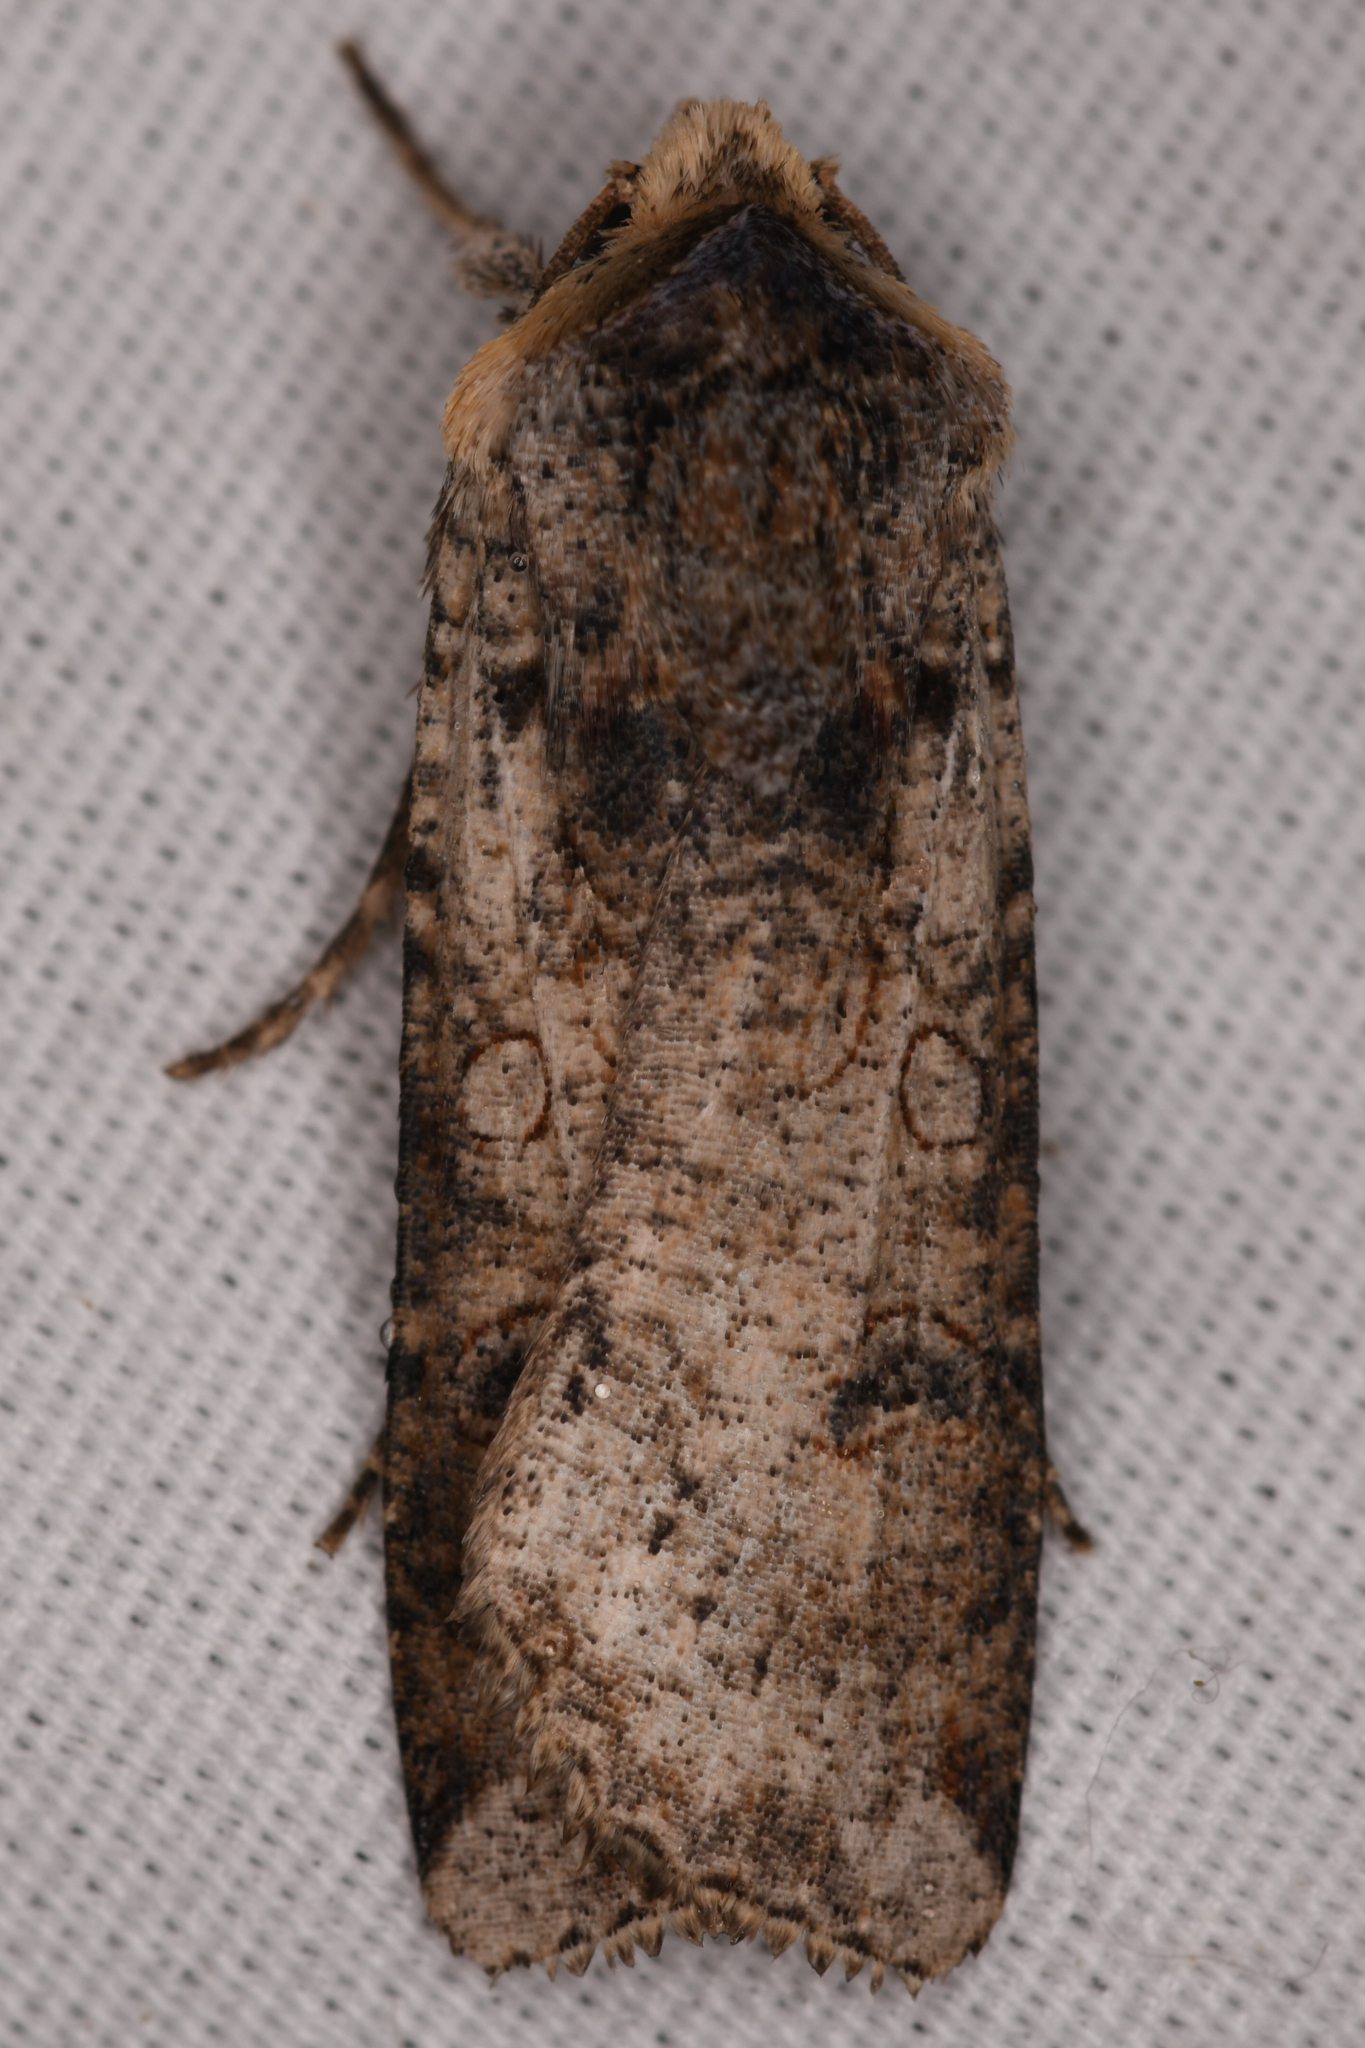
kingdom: Animalia
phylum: Arthropoda
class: Insecta
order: Lepidoptera
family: Noctuidae
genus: Hemieuxoa
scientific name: Hemieuxoa rudens
